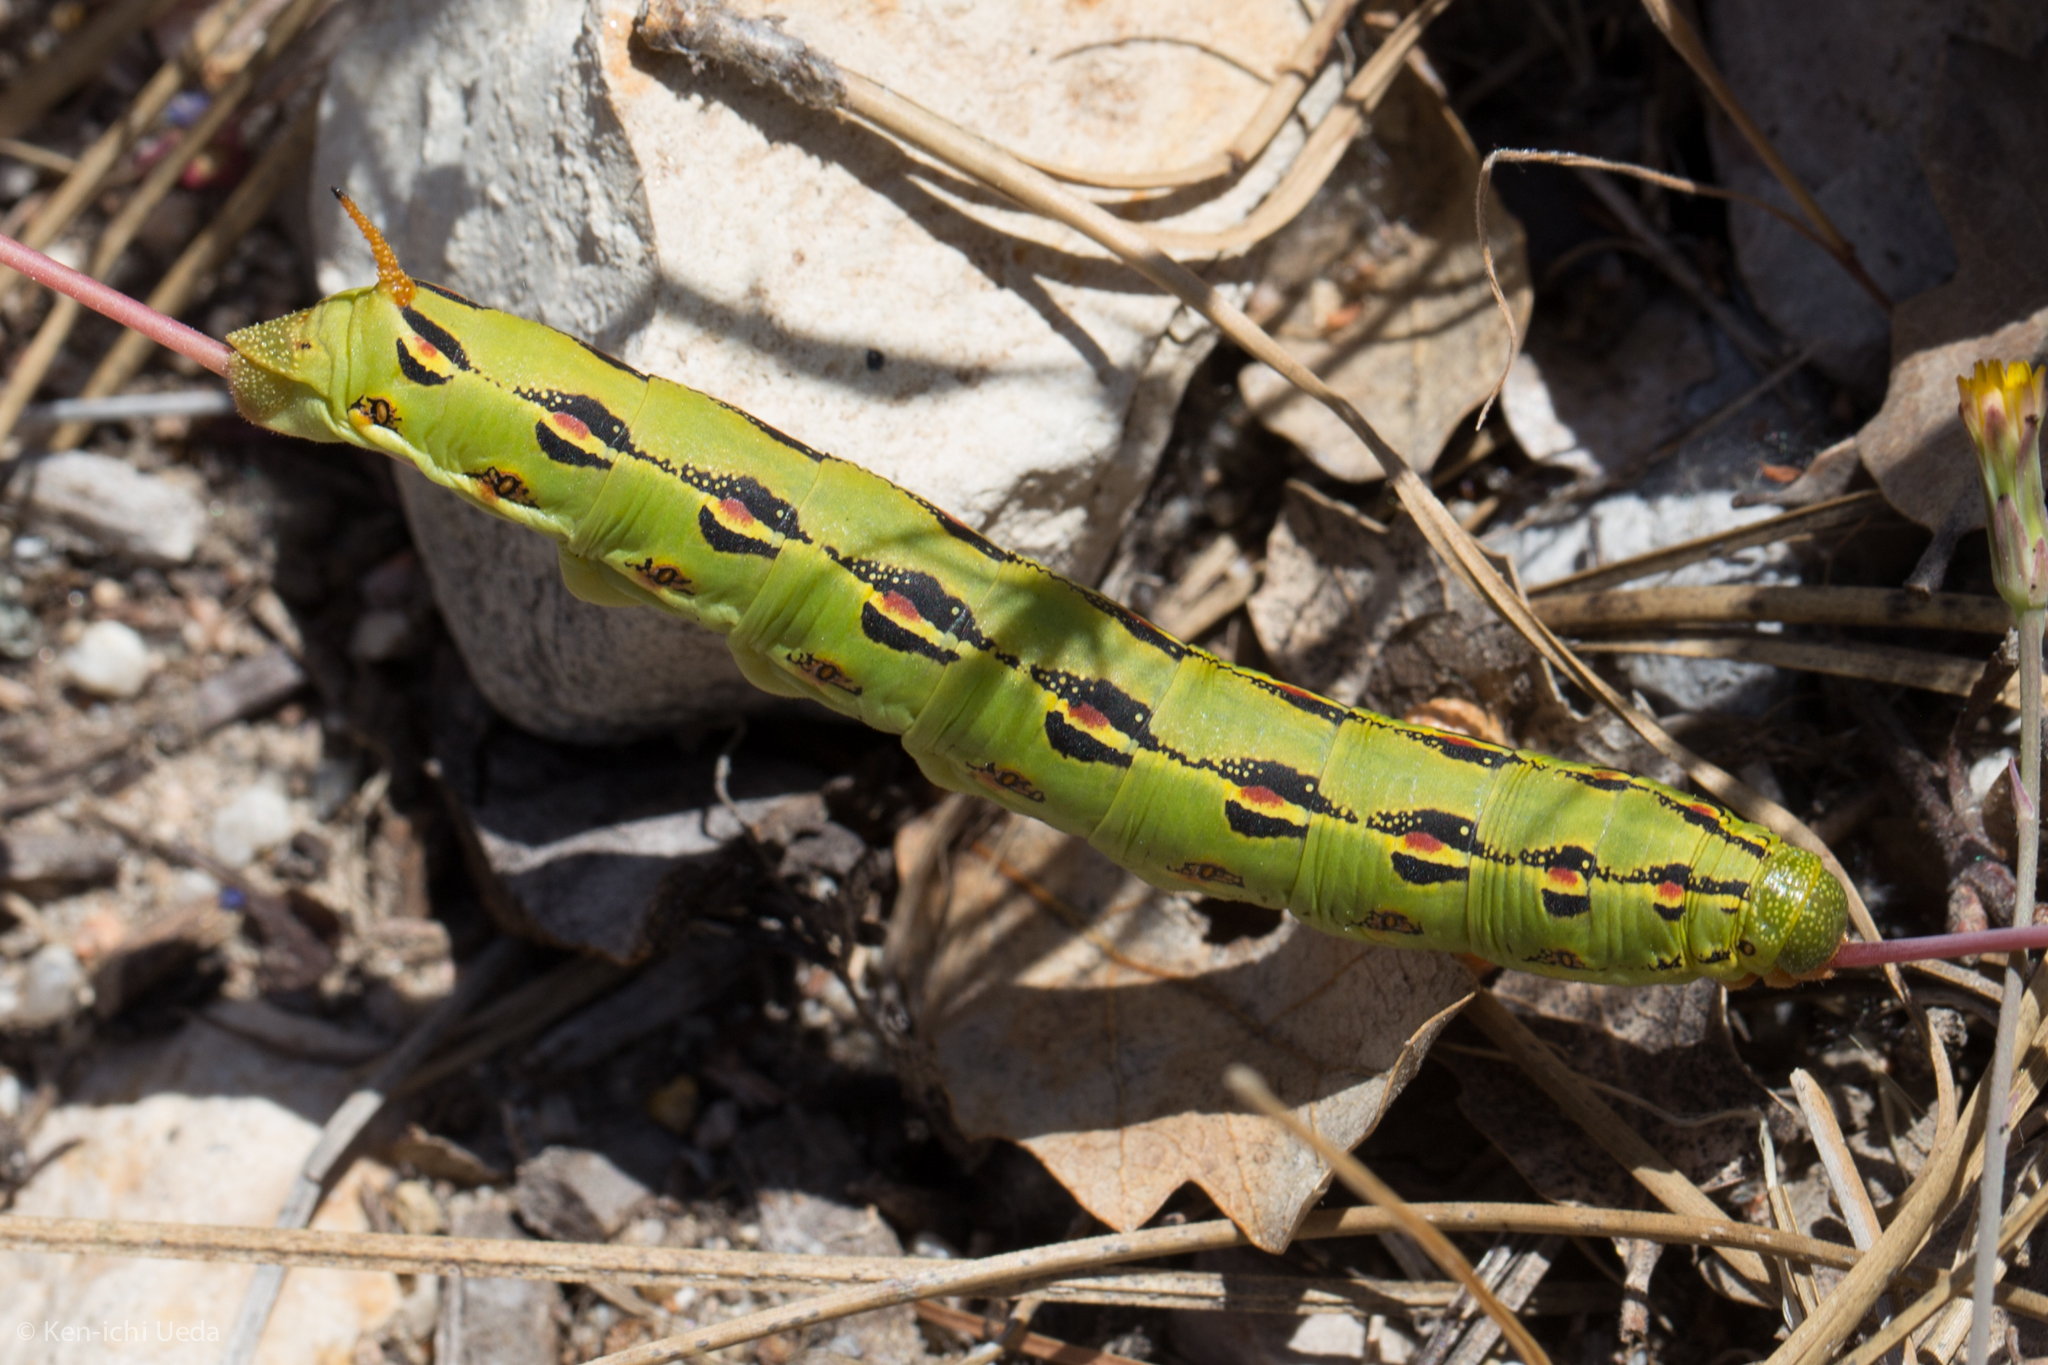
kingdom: Animalia
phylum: Arthropoda
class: Insecta
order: Lepidoptera
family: Sphingidae
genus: Hyles
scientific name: Hyles lineata
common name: White-lined sphinx
